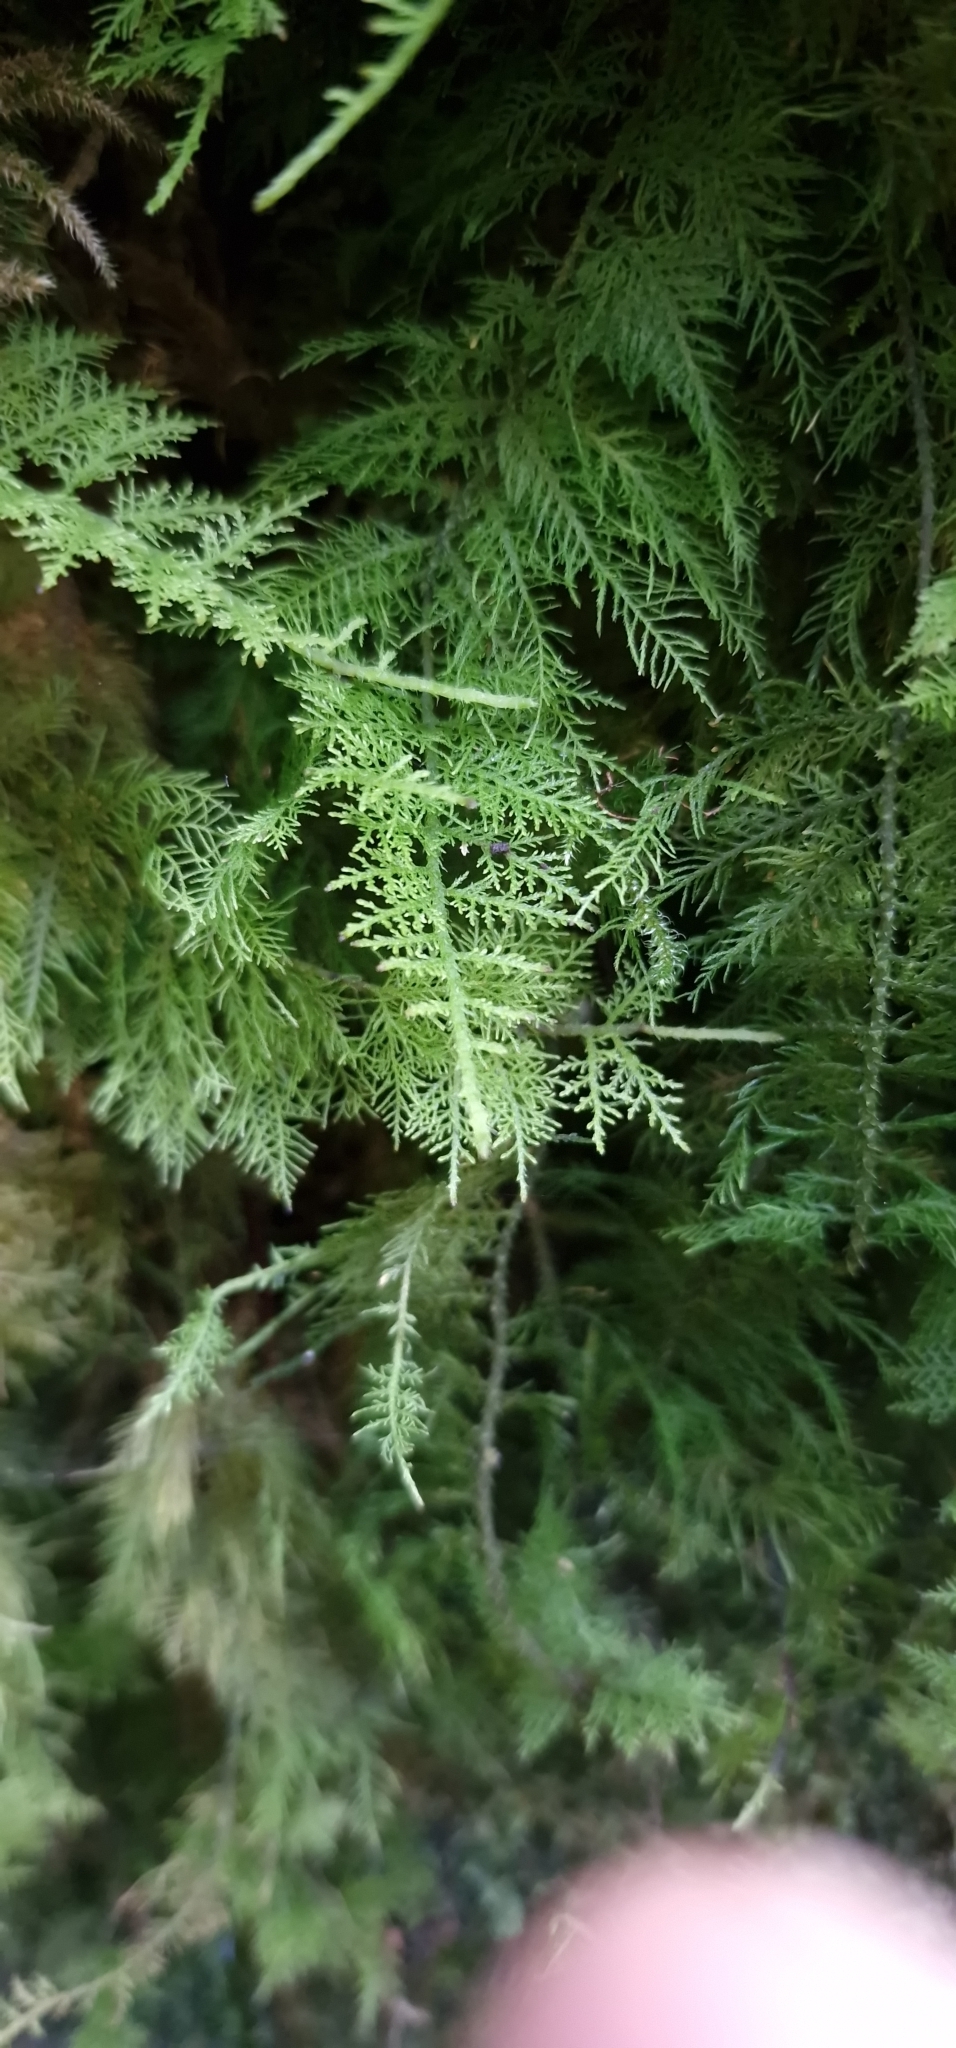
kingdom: Plantae
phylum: Bryophyta
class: Bryopsida
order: Hypnales
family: Thuidiaceae
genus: Thuidium
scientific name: Thuidium tamariscinum
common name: Common tamarisk-moss
